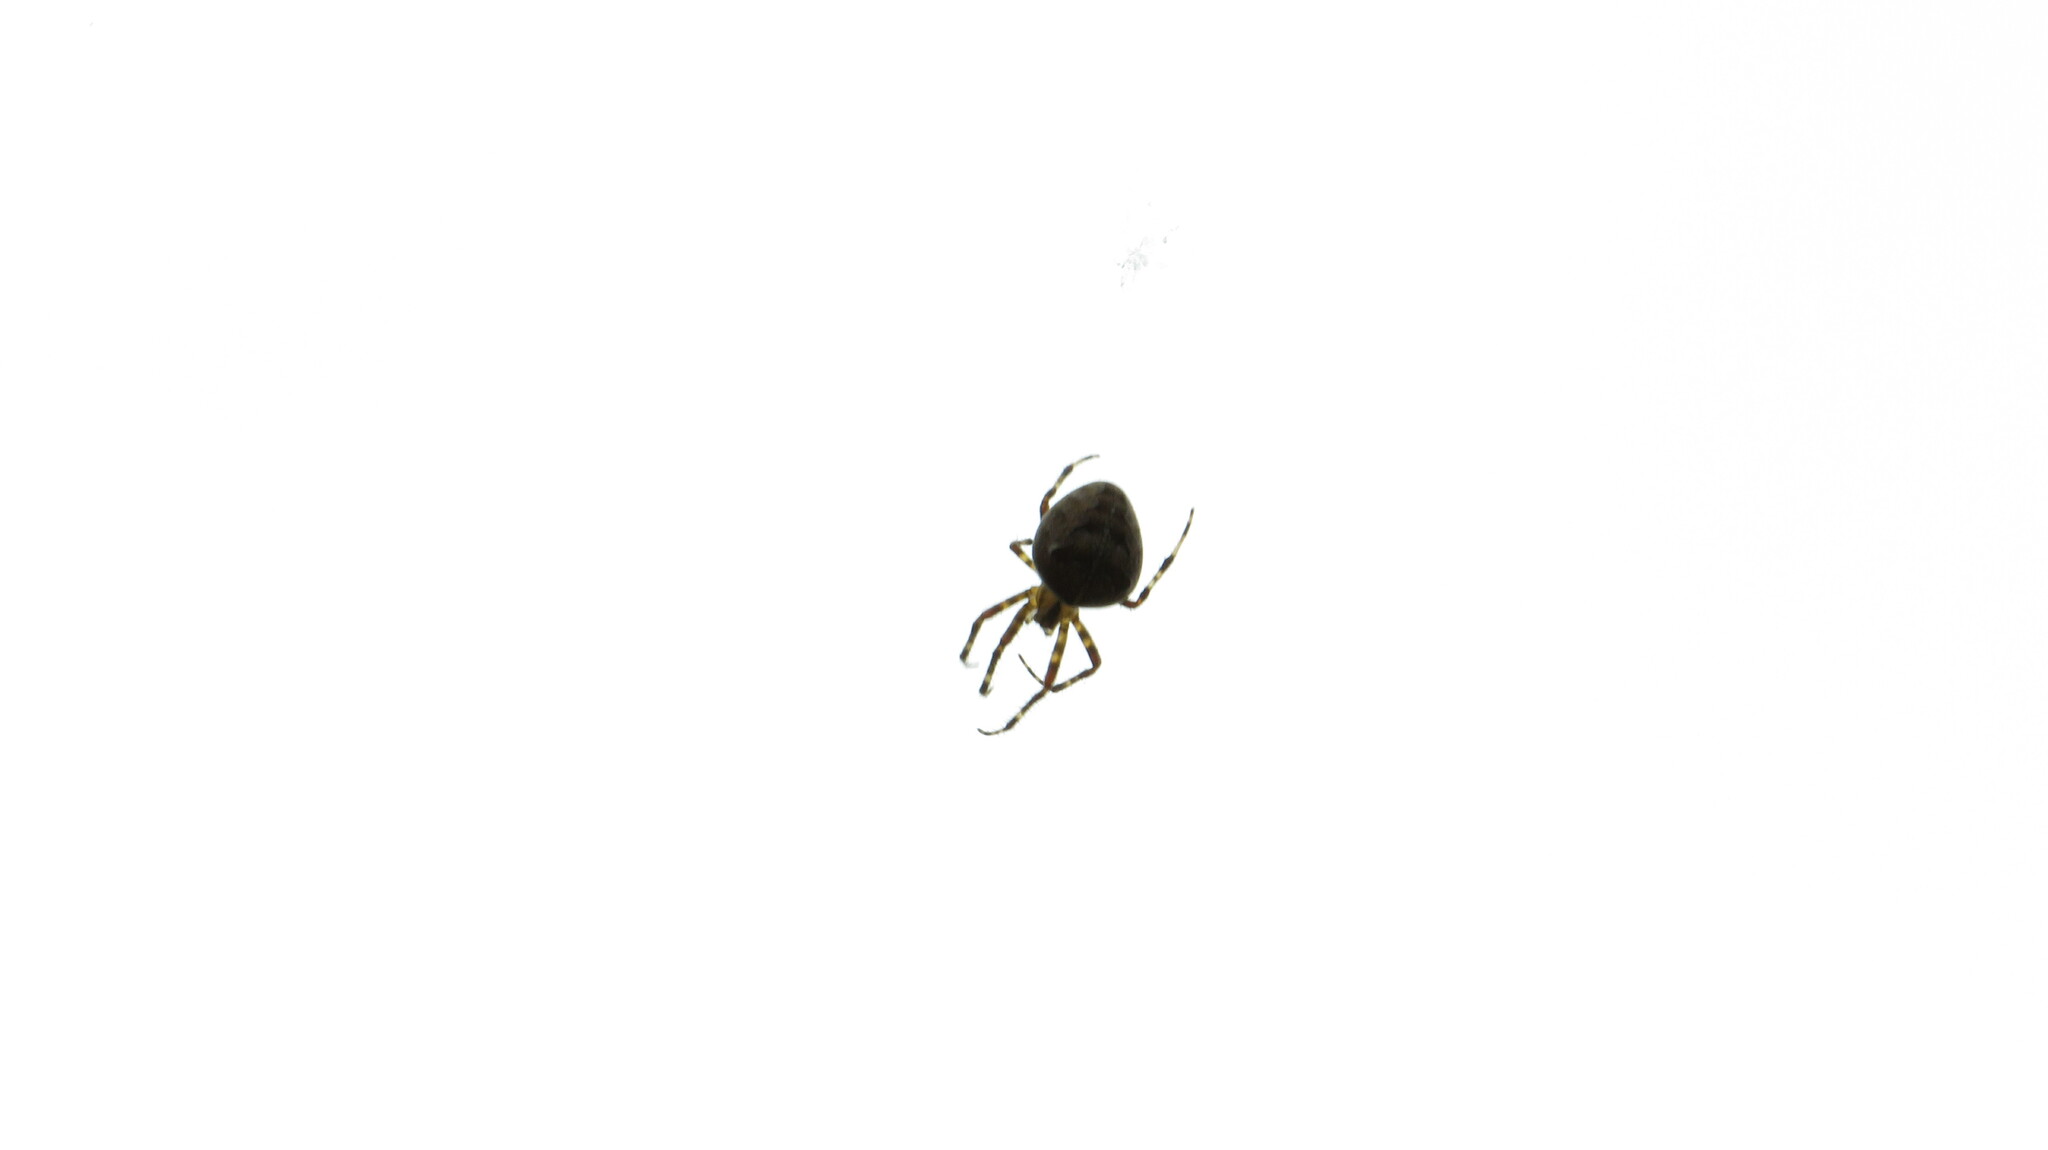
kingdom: Animalia
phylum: Arthropoda
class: Arachnida
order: Araneae
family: Araneidae
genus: Araneus
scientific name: Araneus diadematus
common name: Cross orbweaver
